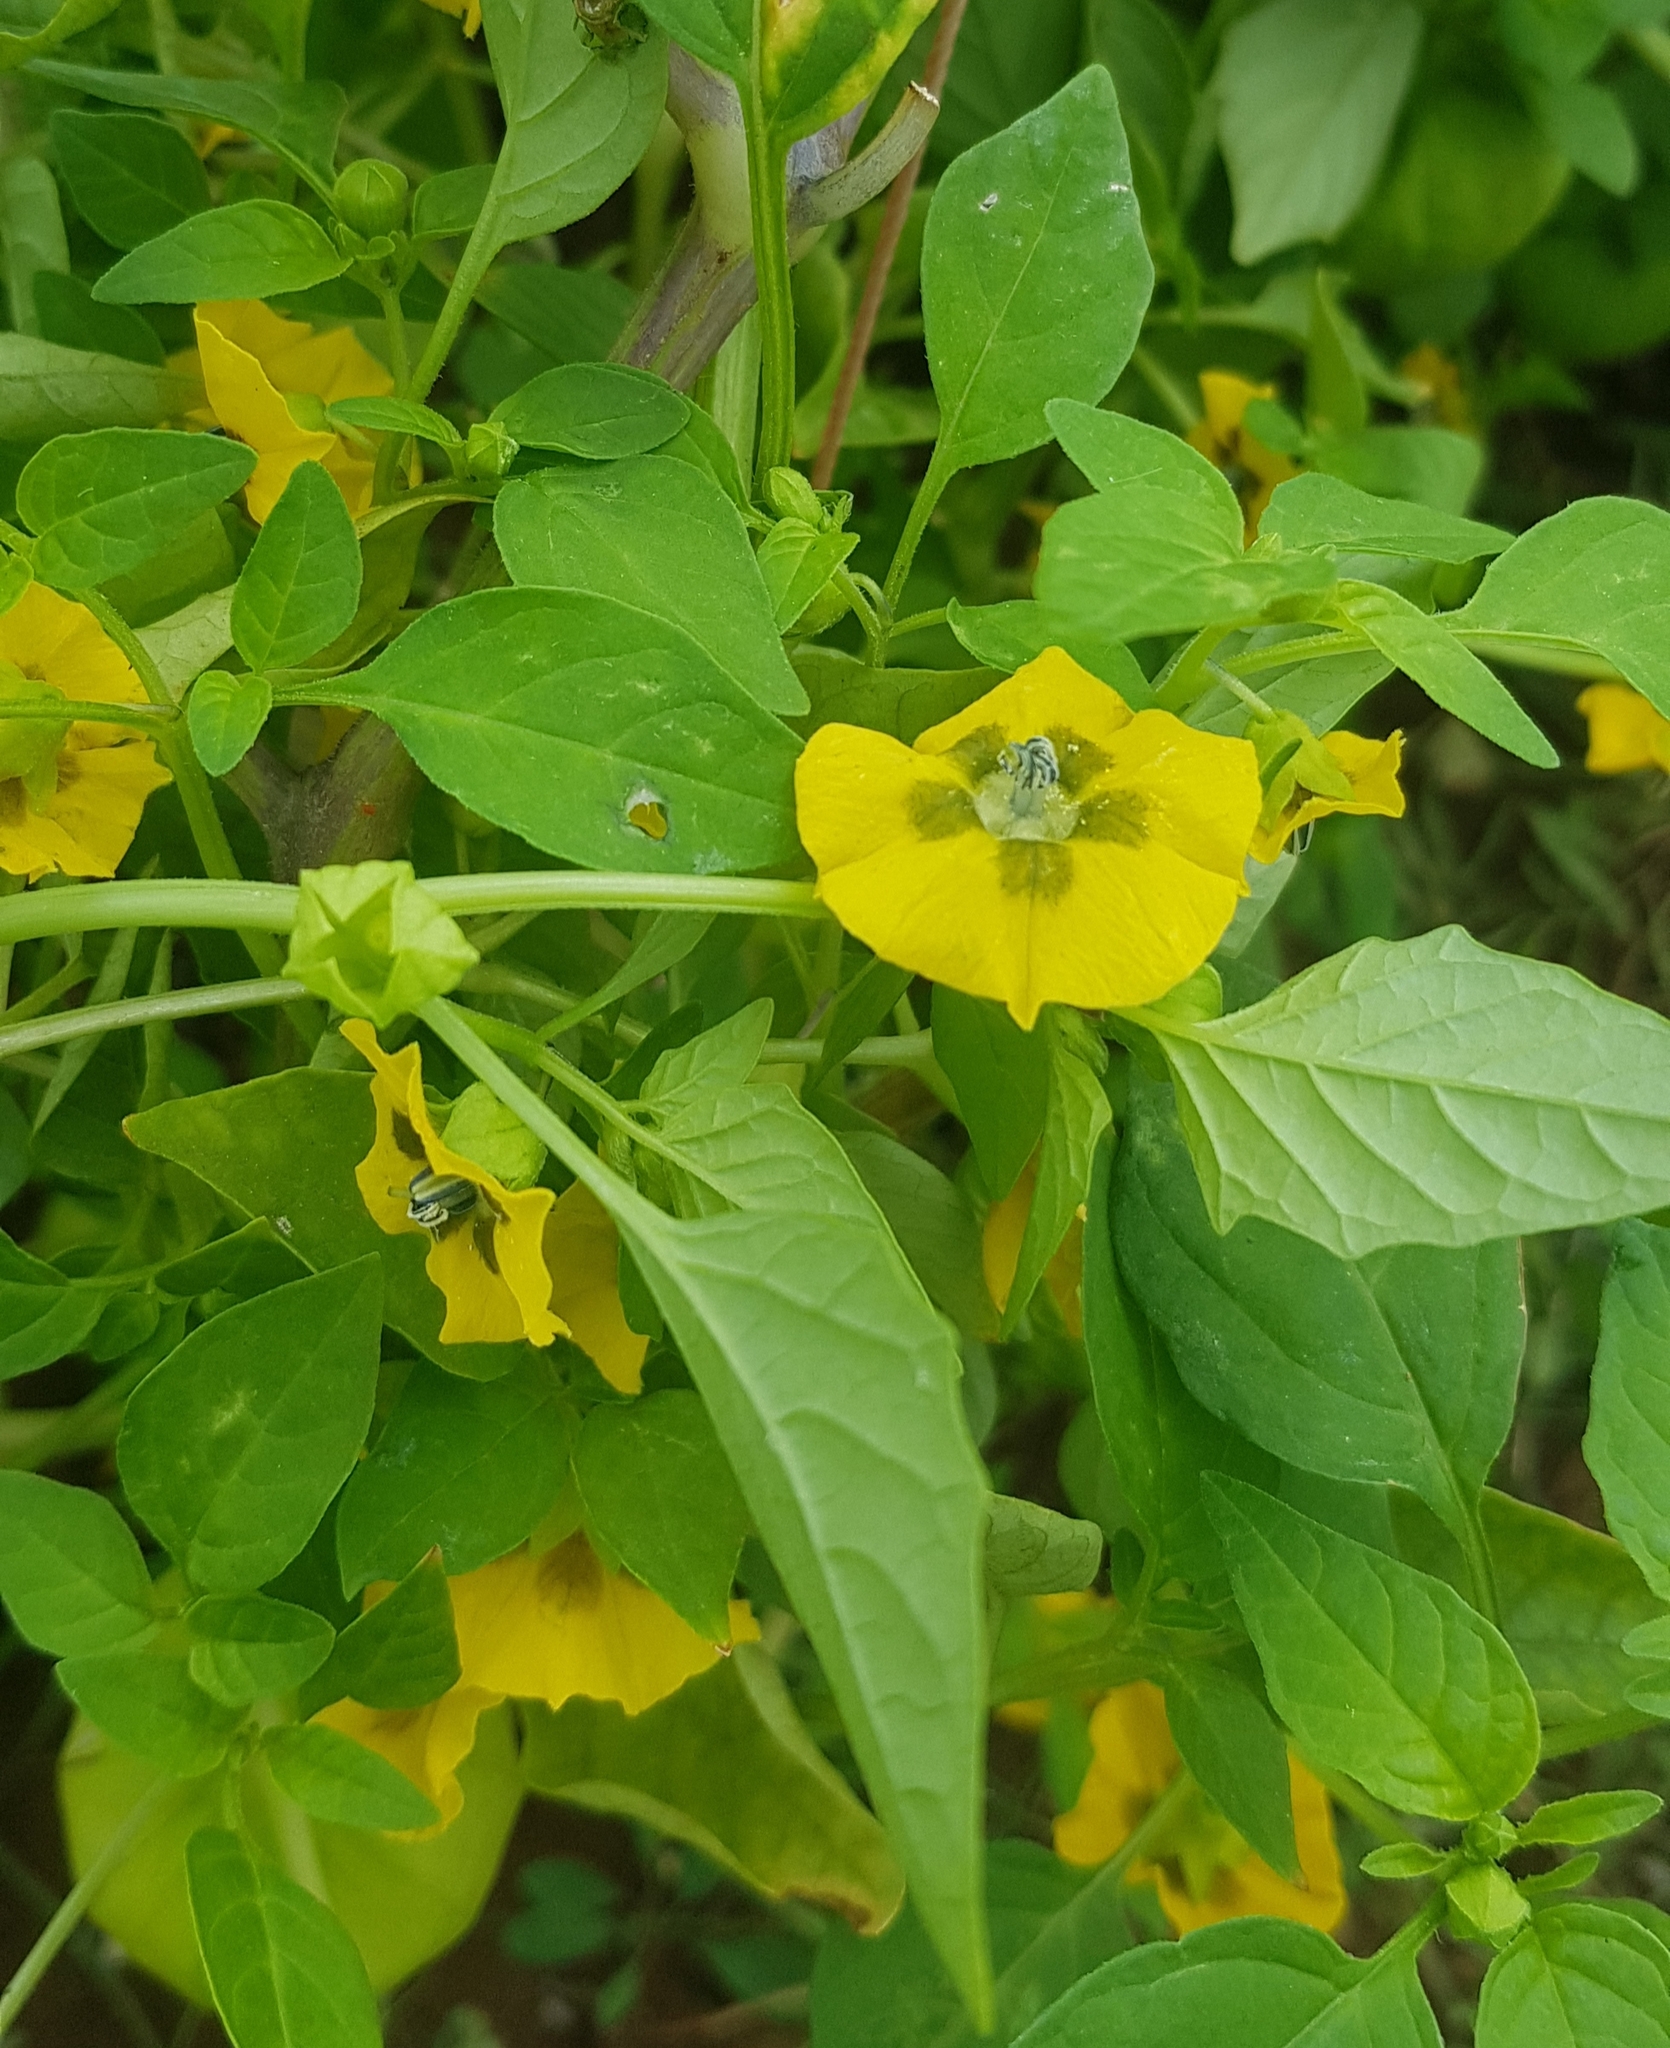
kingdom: Plantae
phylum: Tracheophyta
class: Magnoliopsida
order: Solanales
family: Solanaceae
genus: Physalis
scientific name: Physalis philadelphica
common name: Husk-tomato
